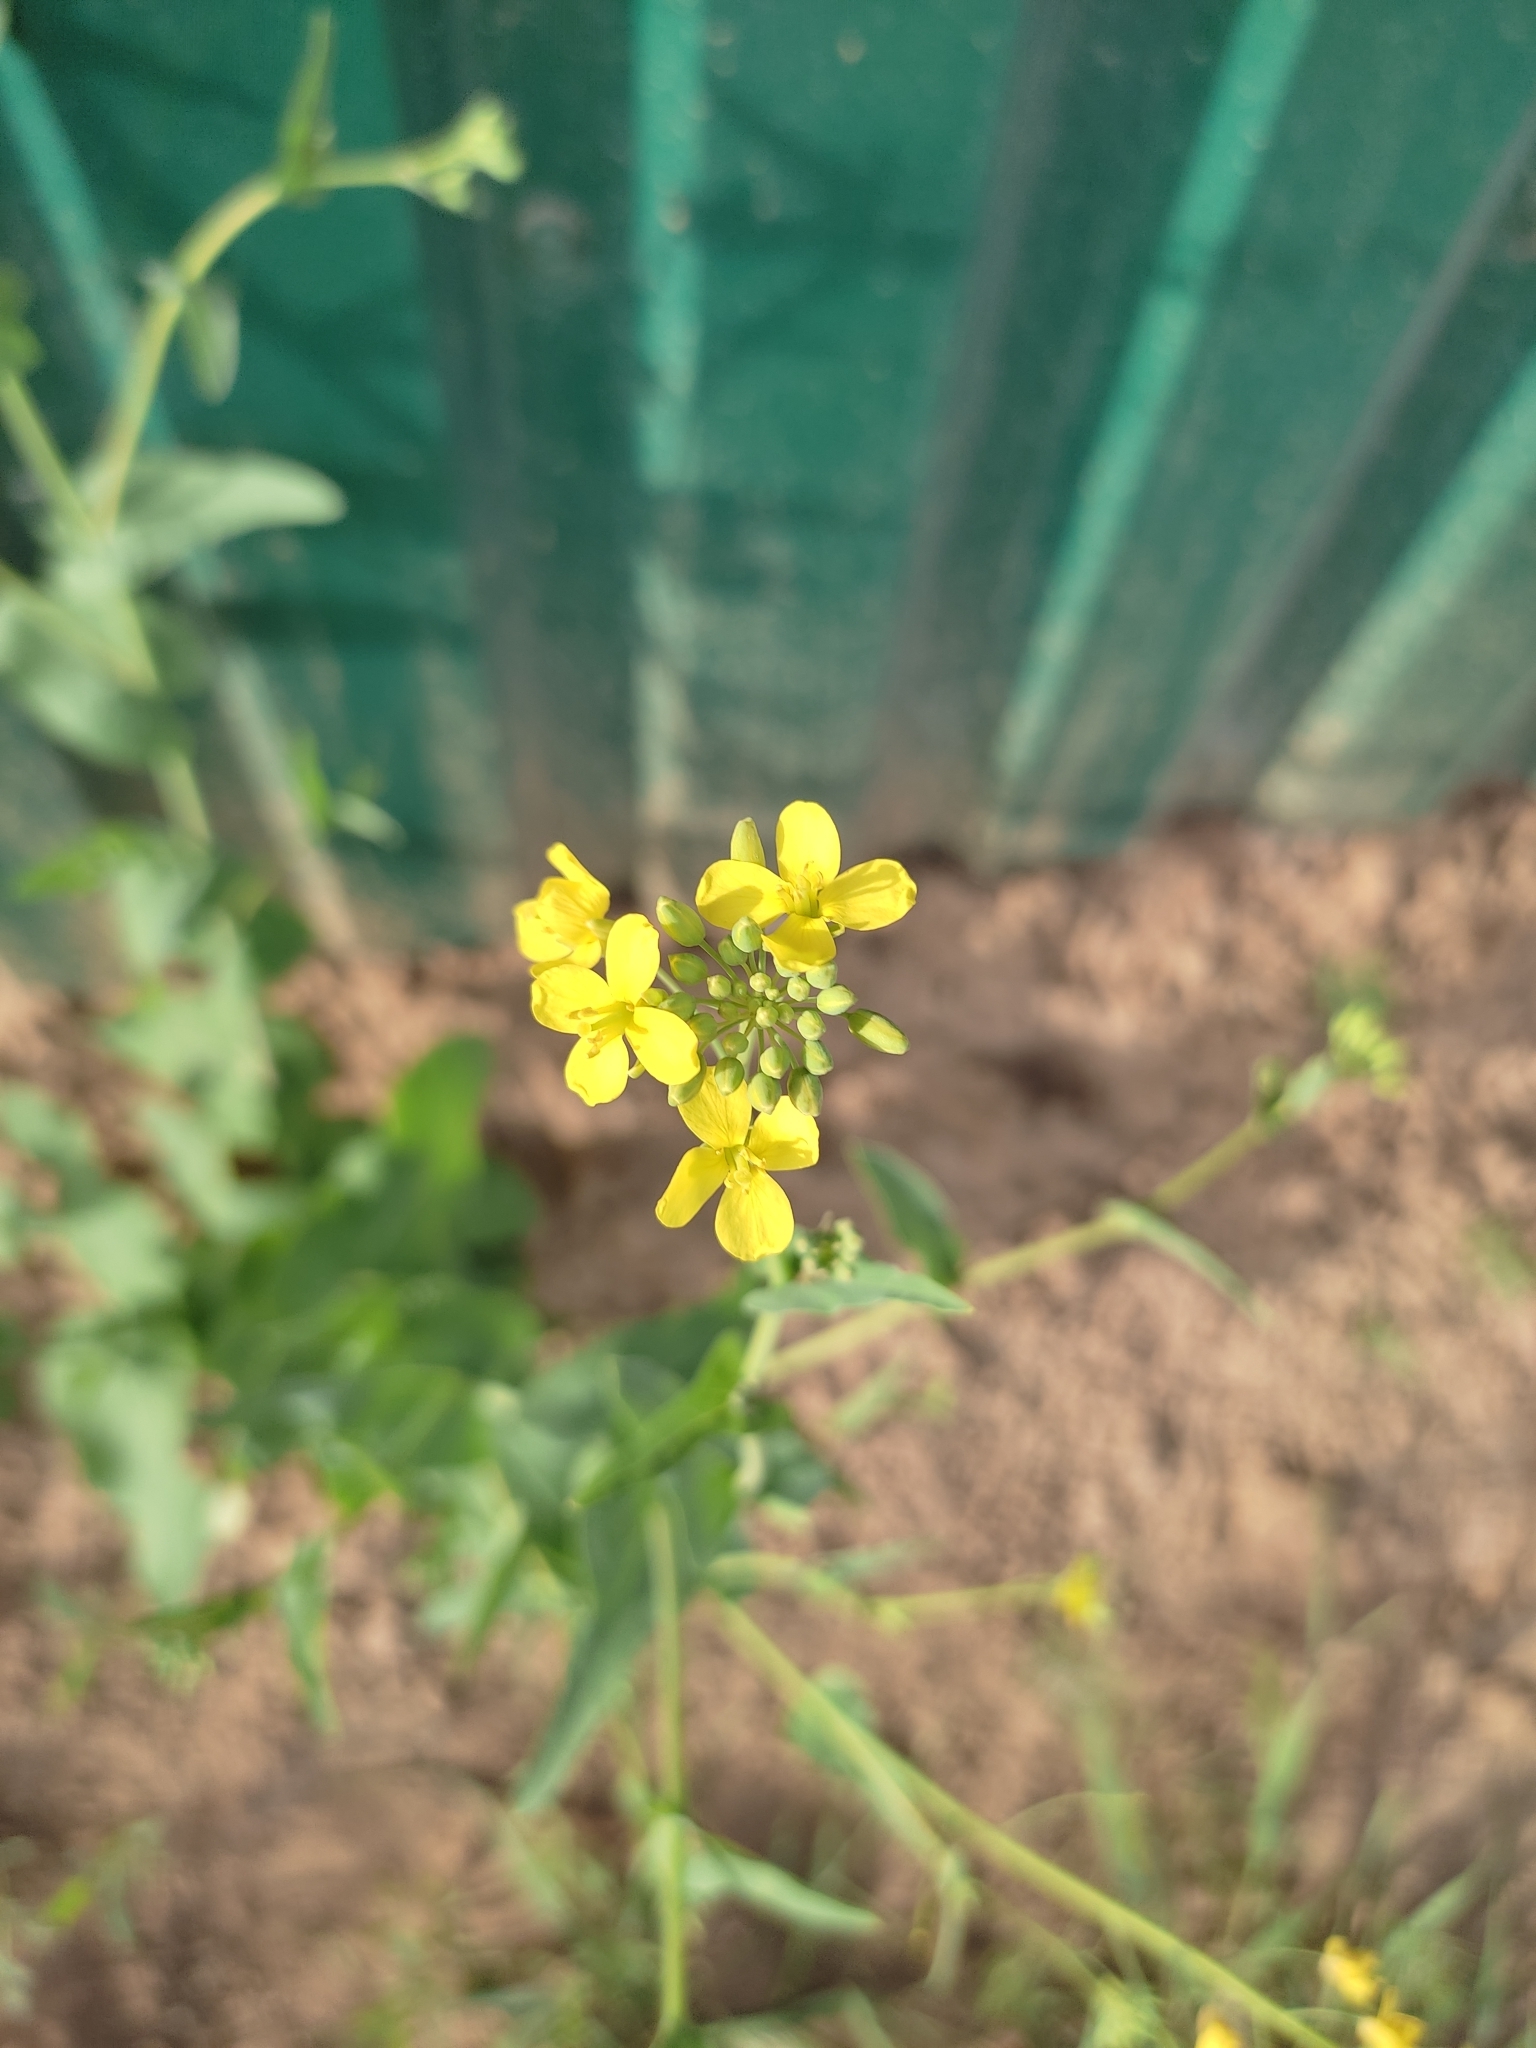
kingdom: Plantae
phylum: Tracheophyta
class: Magnoliopsida
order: Brassicales
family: Brassicaceae
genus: Brassica
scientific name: Brassica rapa
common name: Field mustard
